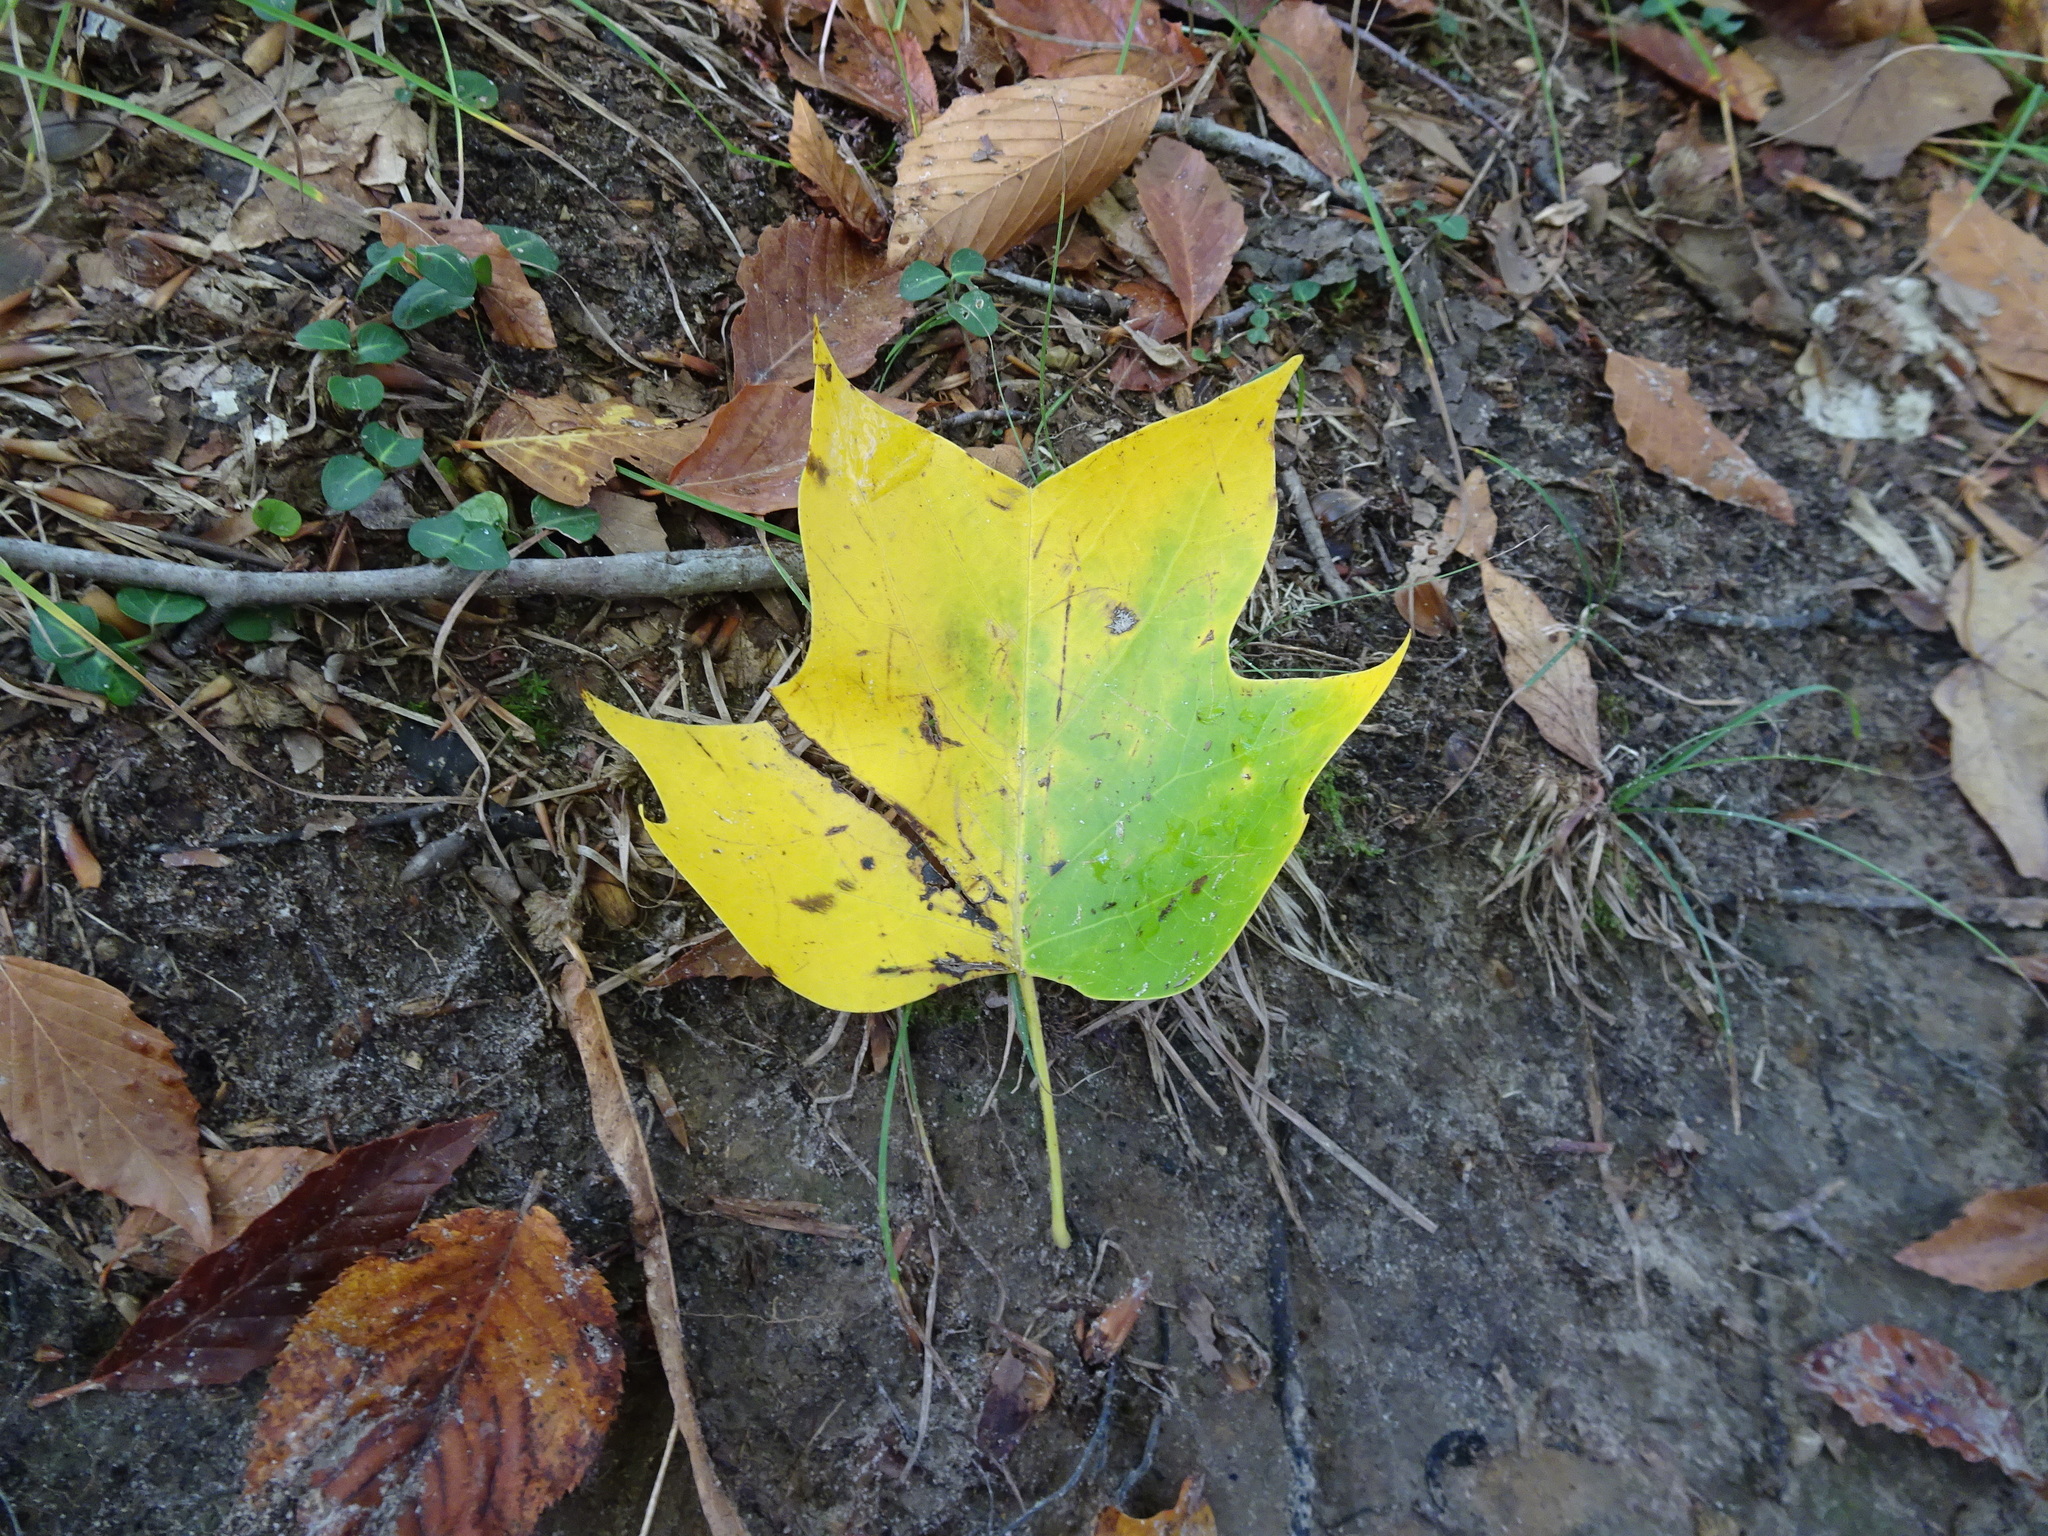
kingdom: Plantae
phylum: Tracheophyta
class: Magnoliopsida
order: Magnoliales
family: Magnoliaceae
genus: Liriodendron
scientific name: Liriodendron tulipifera
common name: Tulip tree
